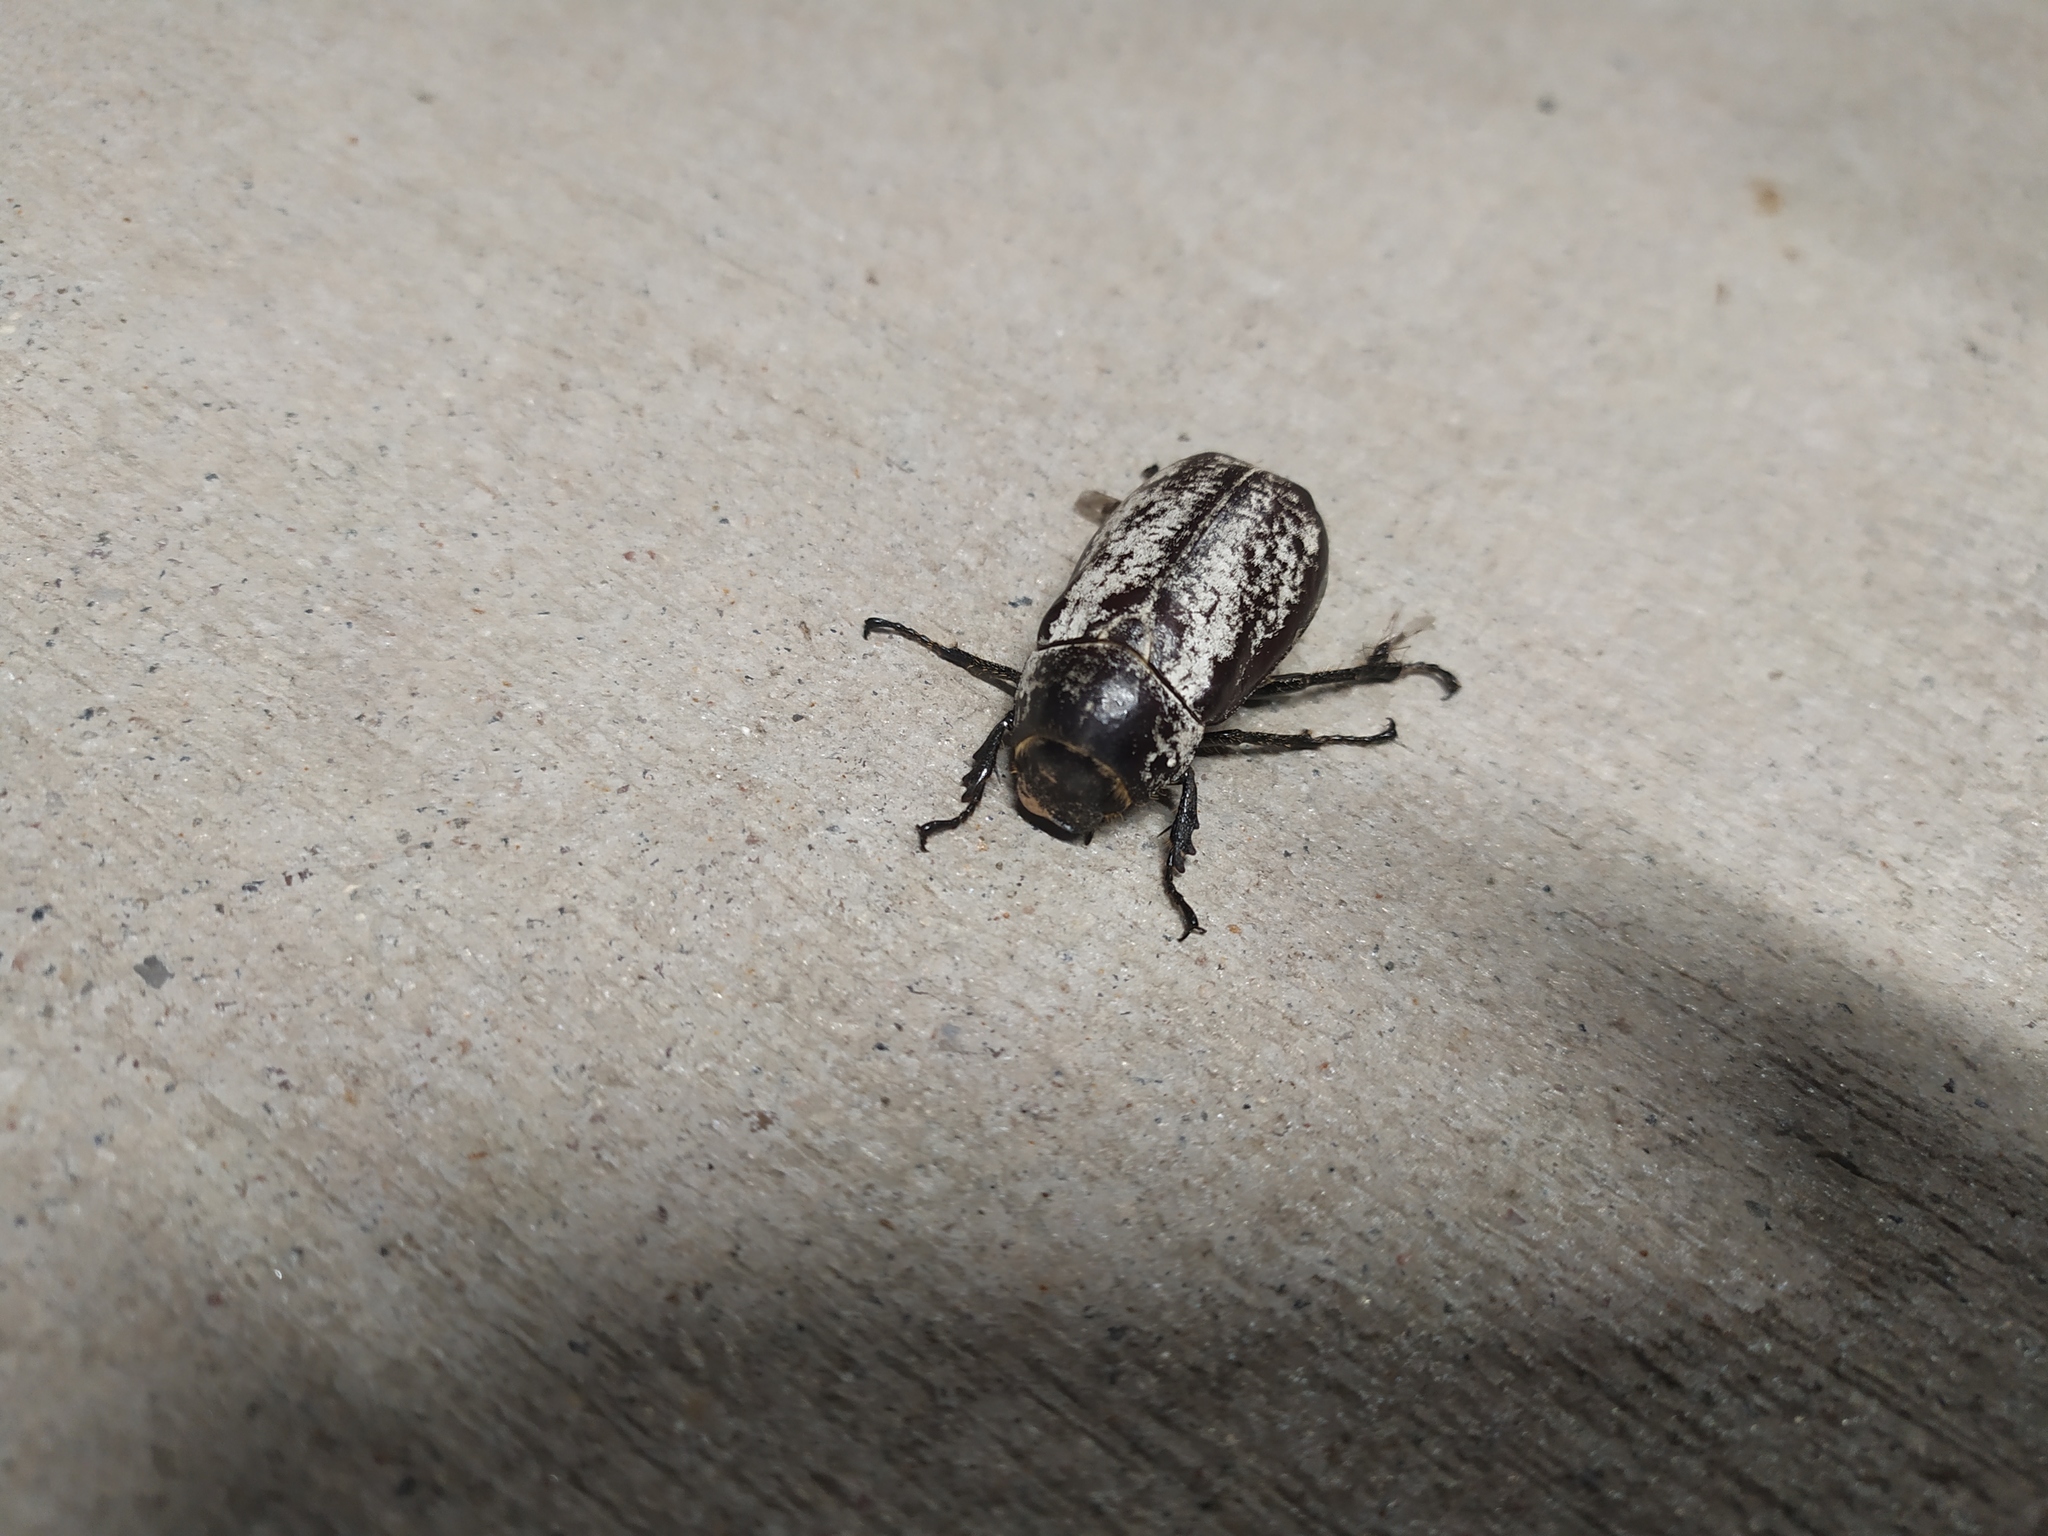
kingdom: Animalia
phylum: Arthropoda
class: Insecta
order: Coleoptera
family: Scarabaeidae
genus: Dermolepida
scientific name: Dermolepida albohirtum
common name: Greyback cane beetle
